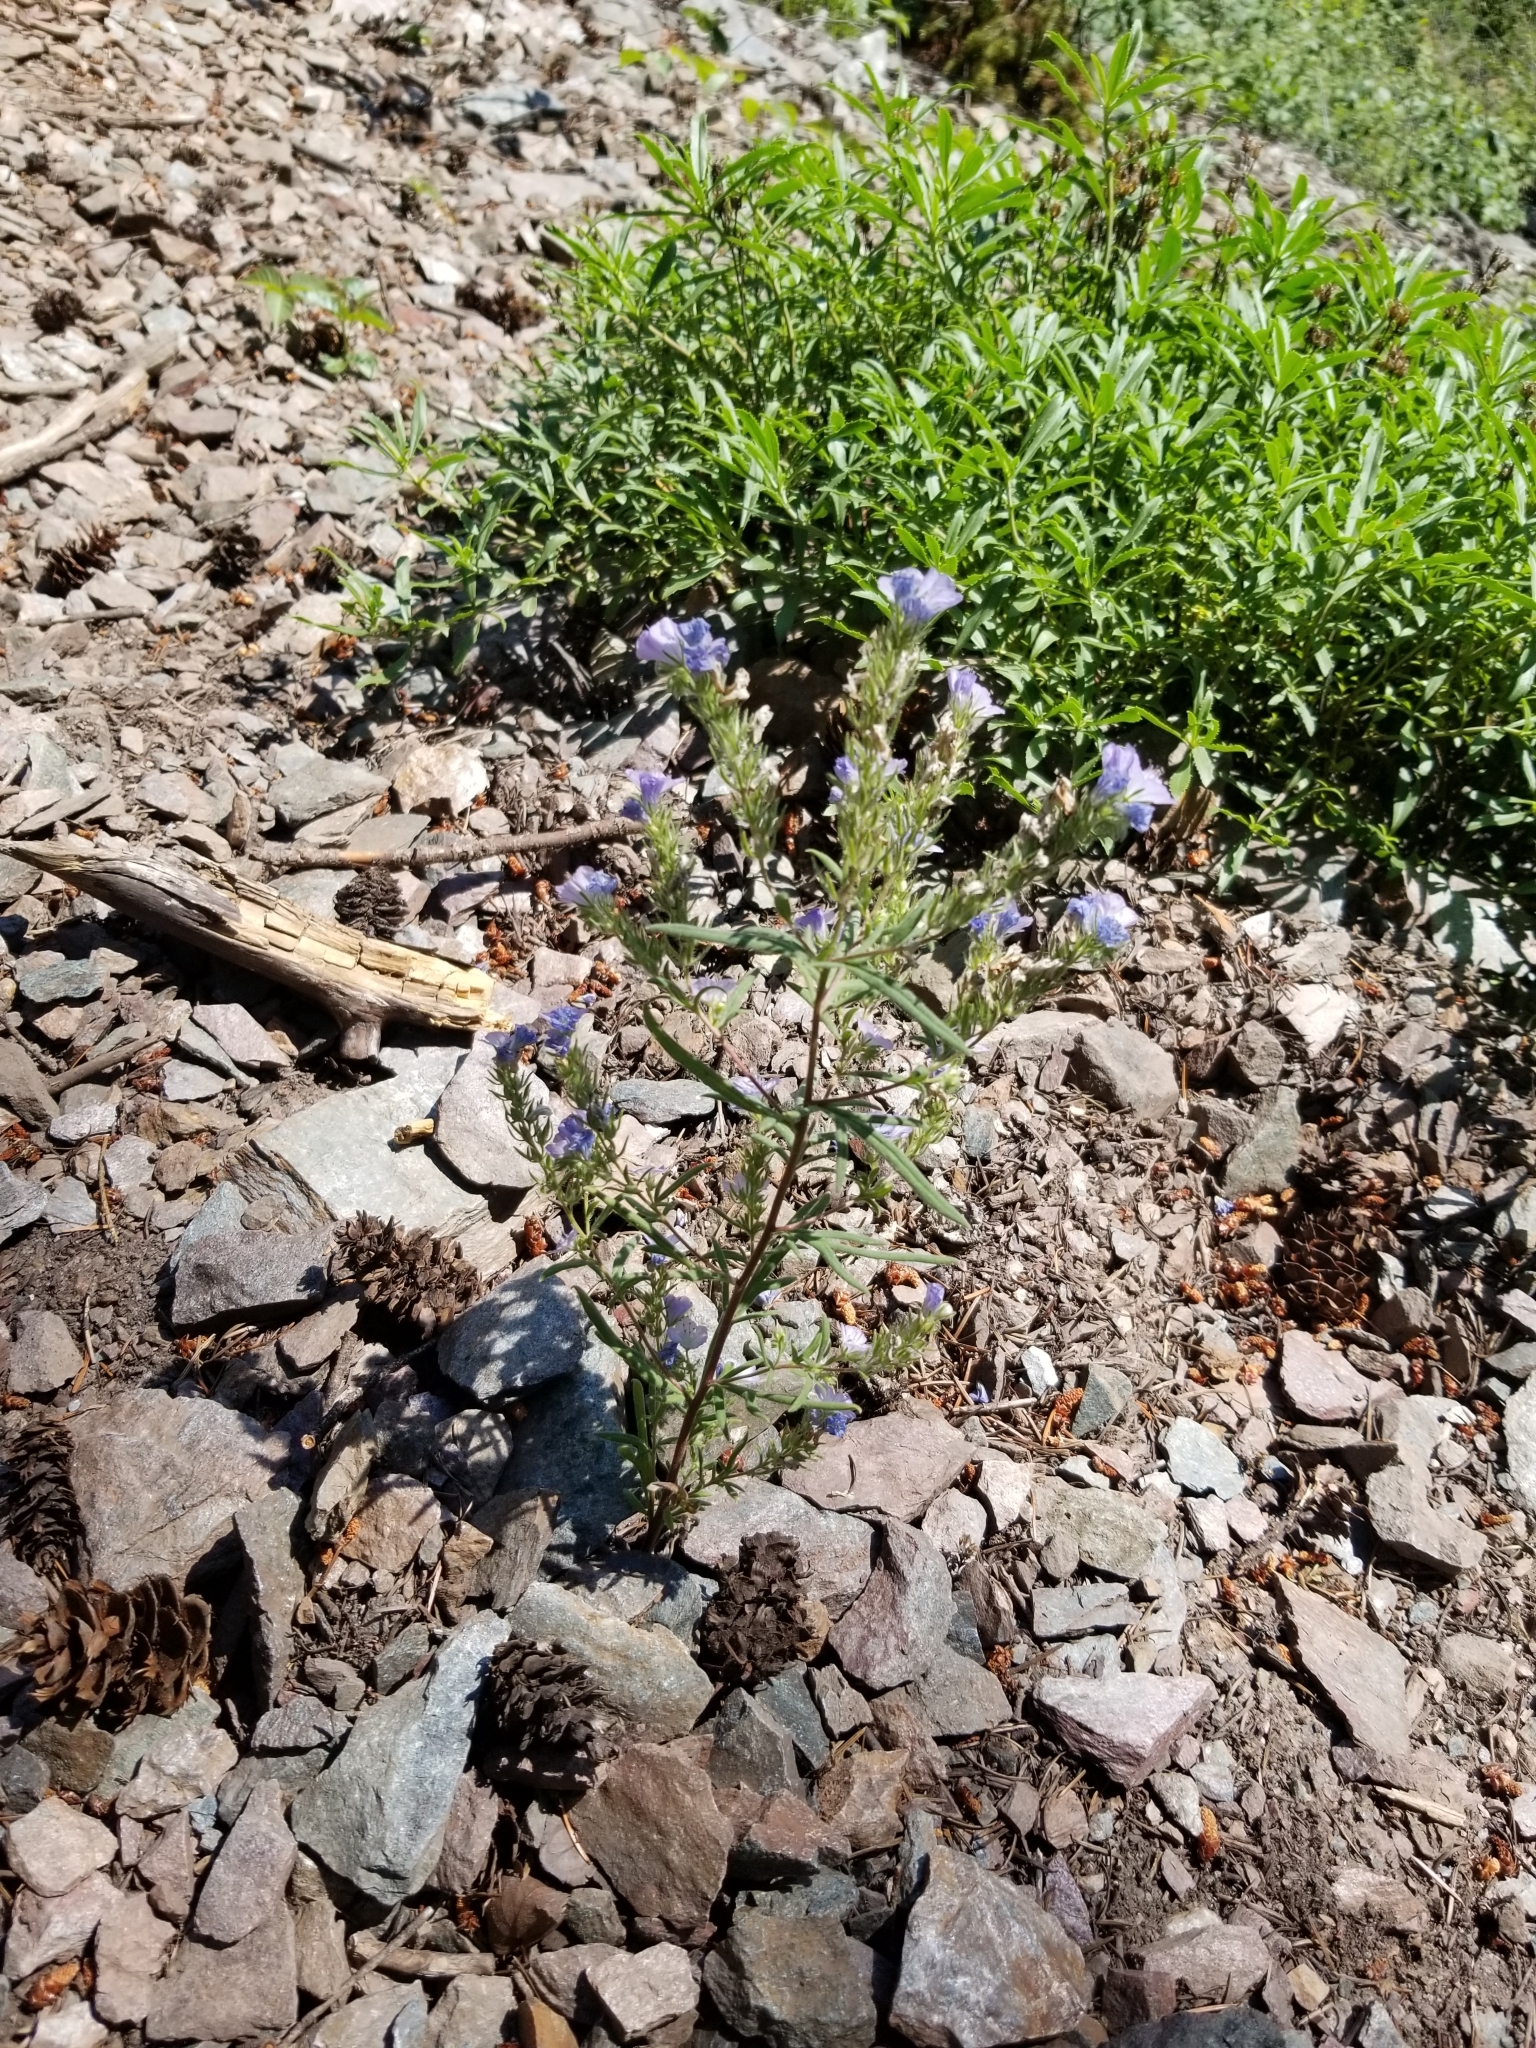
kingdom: Plantae
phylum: Tracheophyta
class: Magnoliopsida
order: Boraginales
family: Hydrophyllaceae
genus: Phacelia
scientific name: Phacelia linearis
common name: Linear-leaved phacelia
